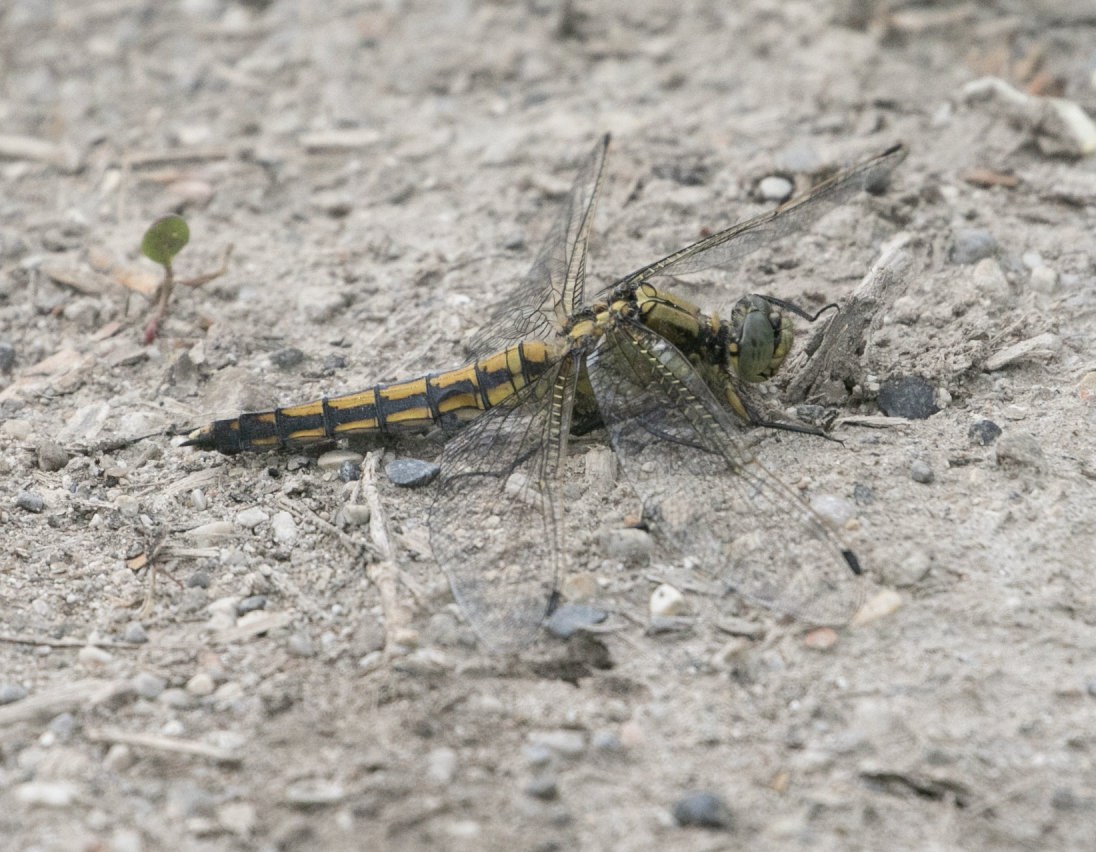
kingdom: Animalia
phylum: Arthropoda
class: Insecta
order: Odonata
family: Libellulidae
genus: Orthetrum
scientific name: Orthetrum cancellatum
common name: Black-tailed skimmer
